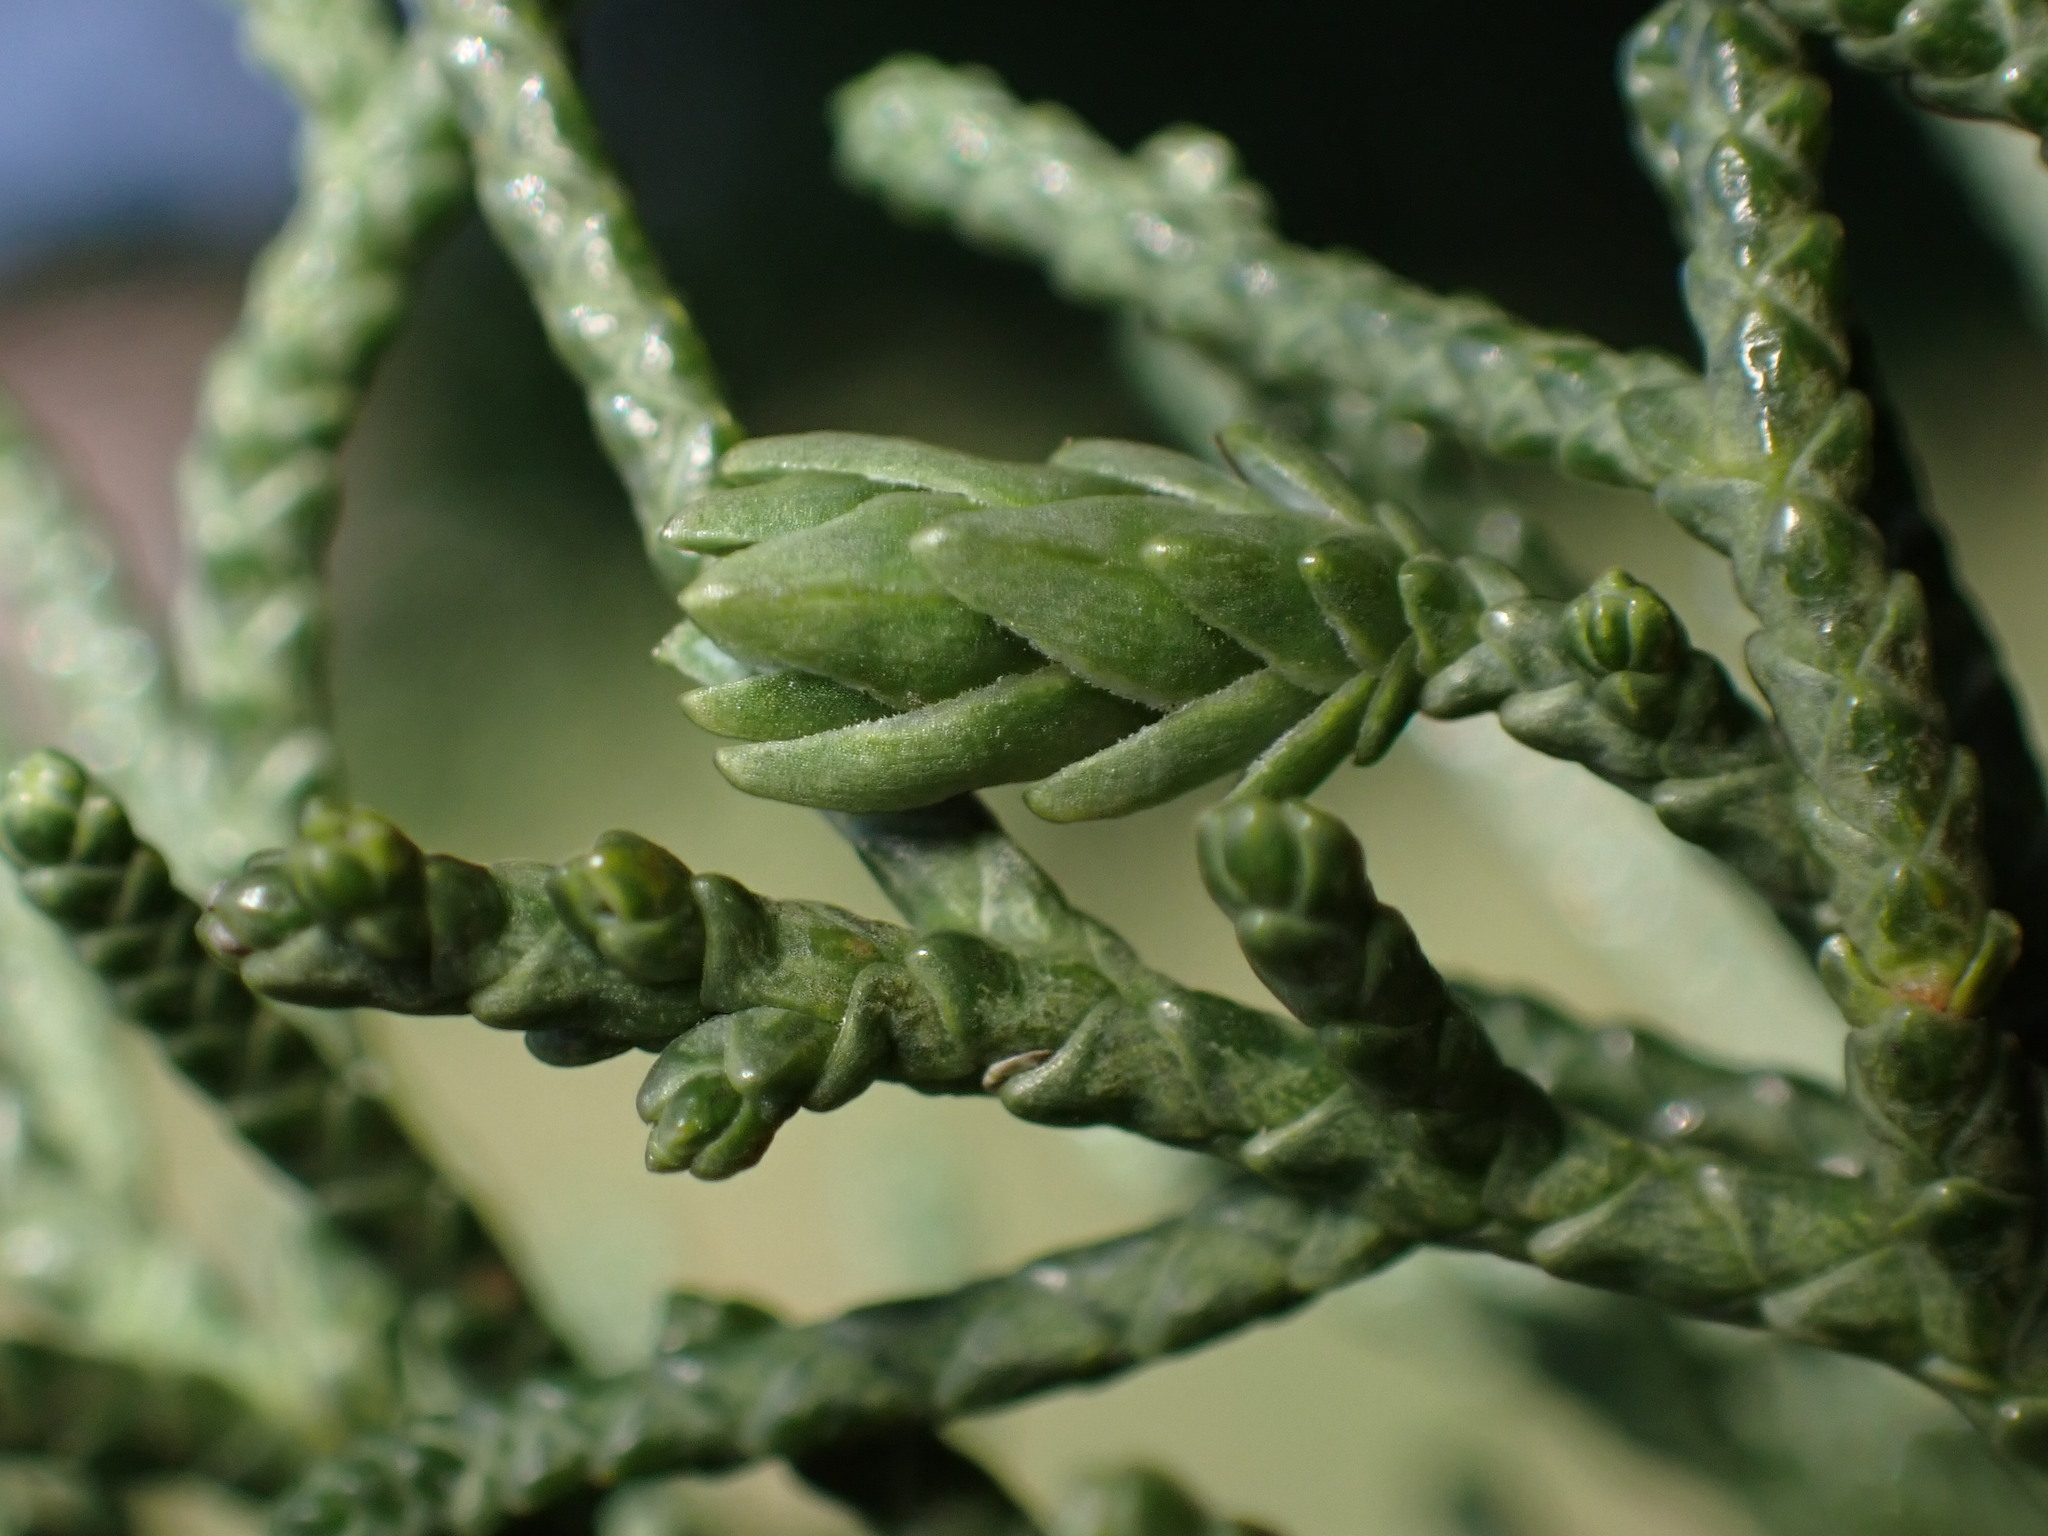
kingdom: Animalia
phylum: Arthropoda
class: Insecta
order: Diptera
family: Cecidomyiidae
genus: Oligotrophus
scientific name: Oligotrophus cupressi
